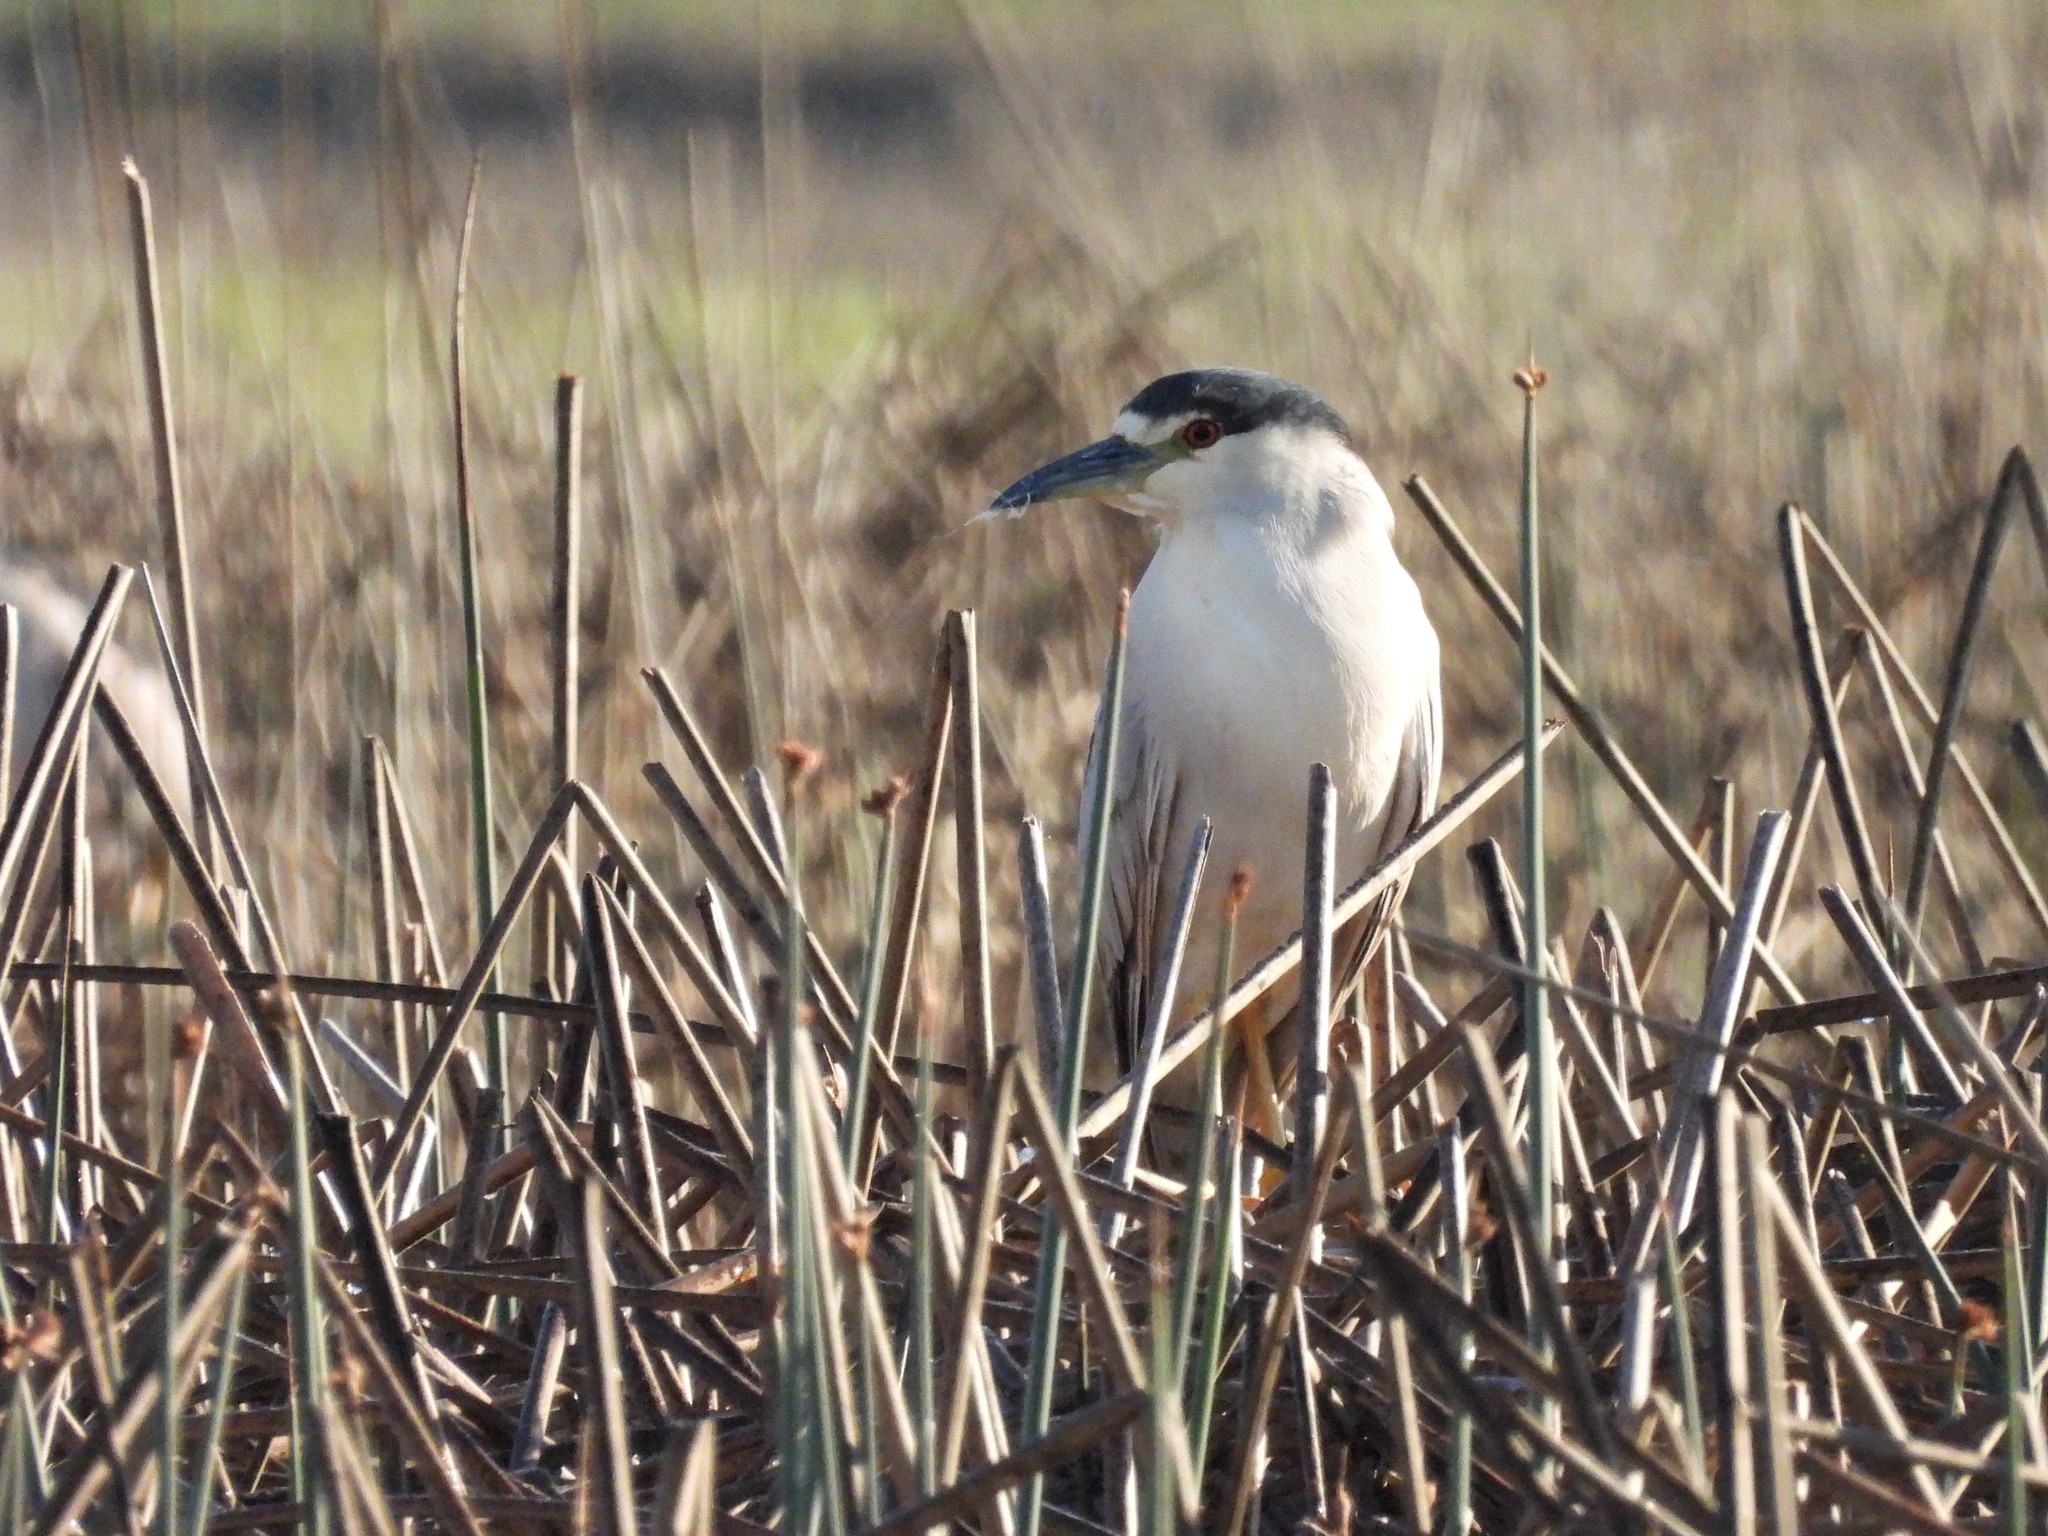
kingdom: Animalia
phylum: Chordata
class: Aves
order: Pelecaniformes
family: Ardeidae
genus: Nycticorax
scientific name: Nycticorax nycticorax
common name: Black-crowned night heron
